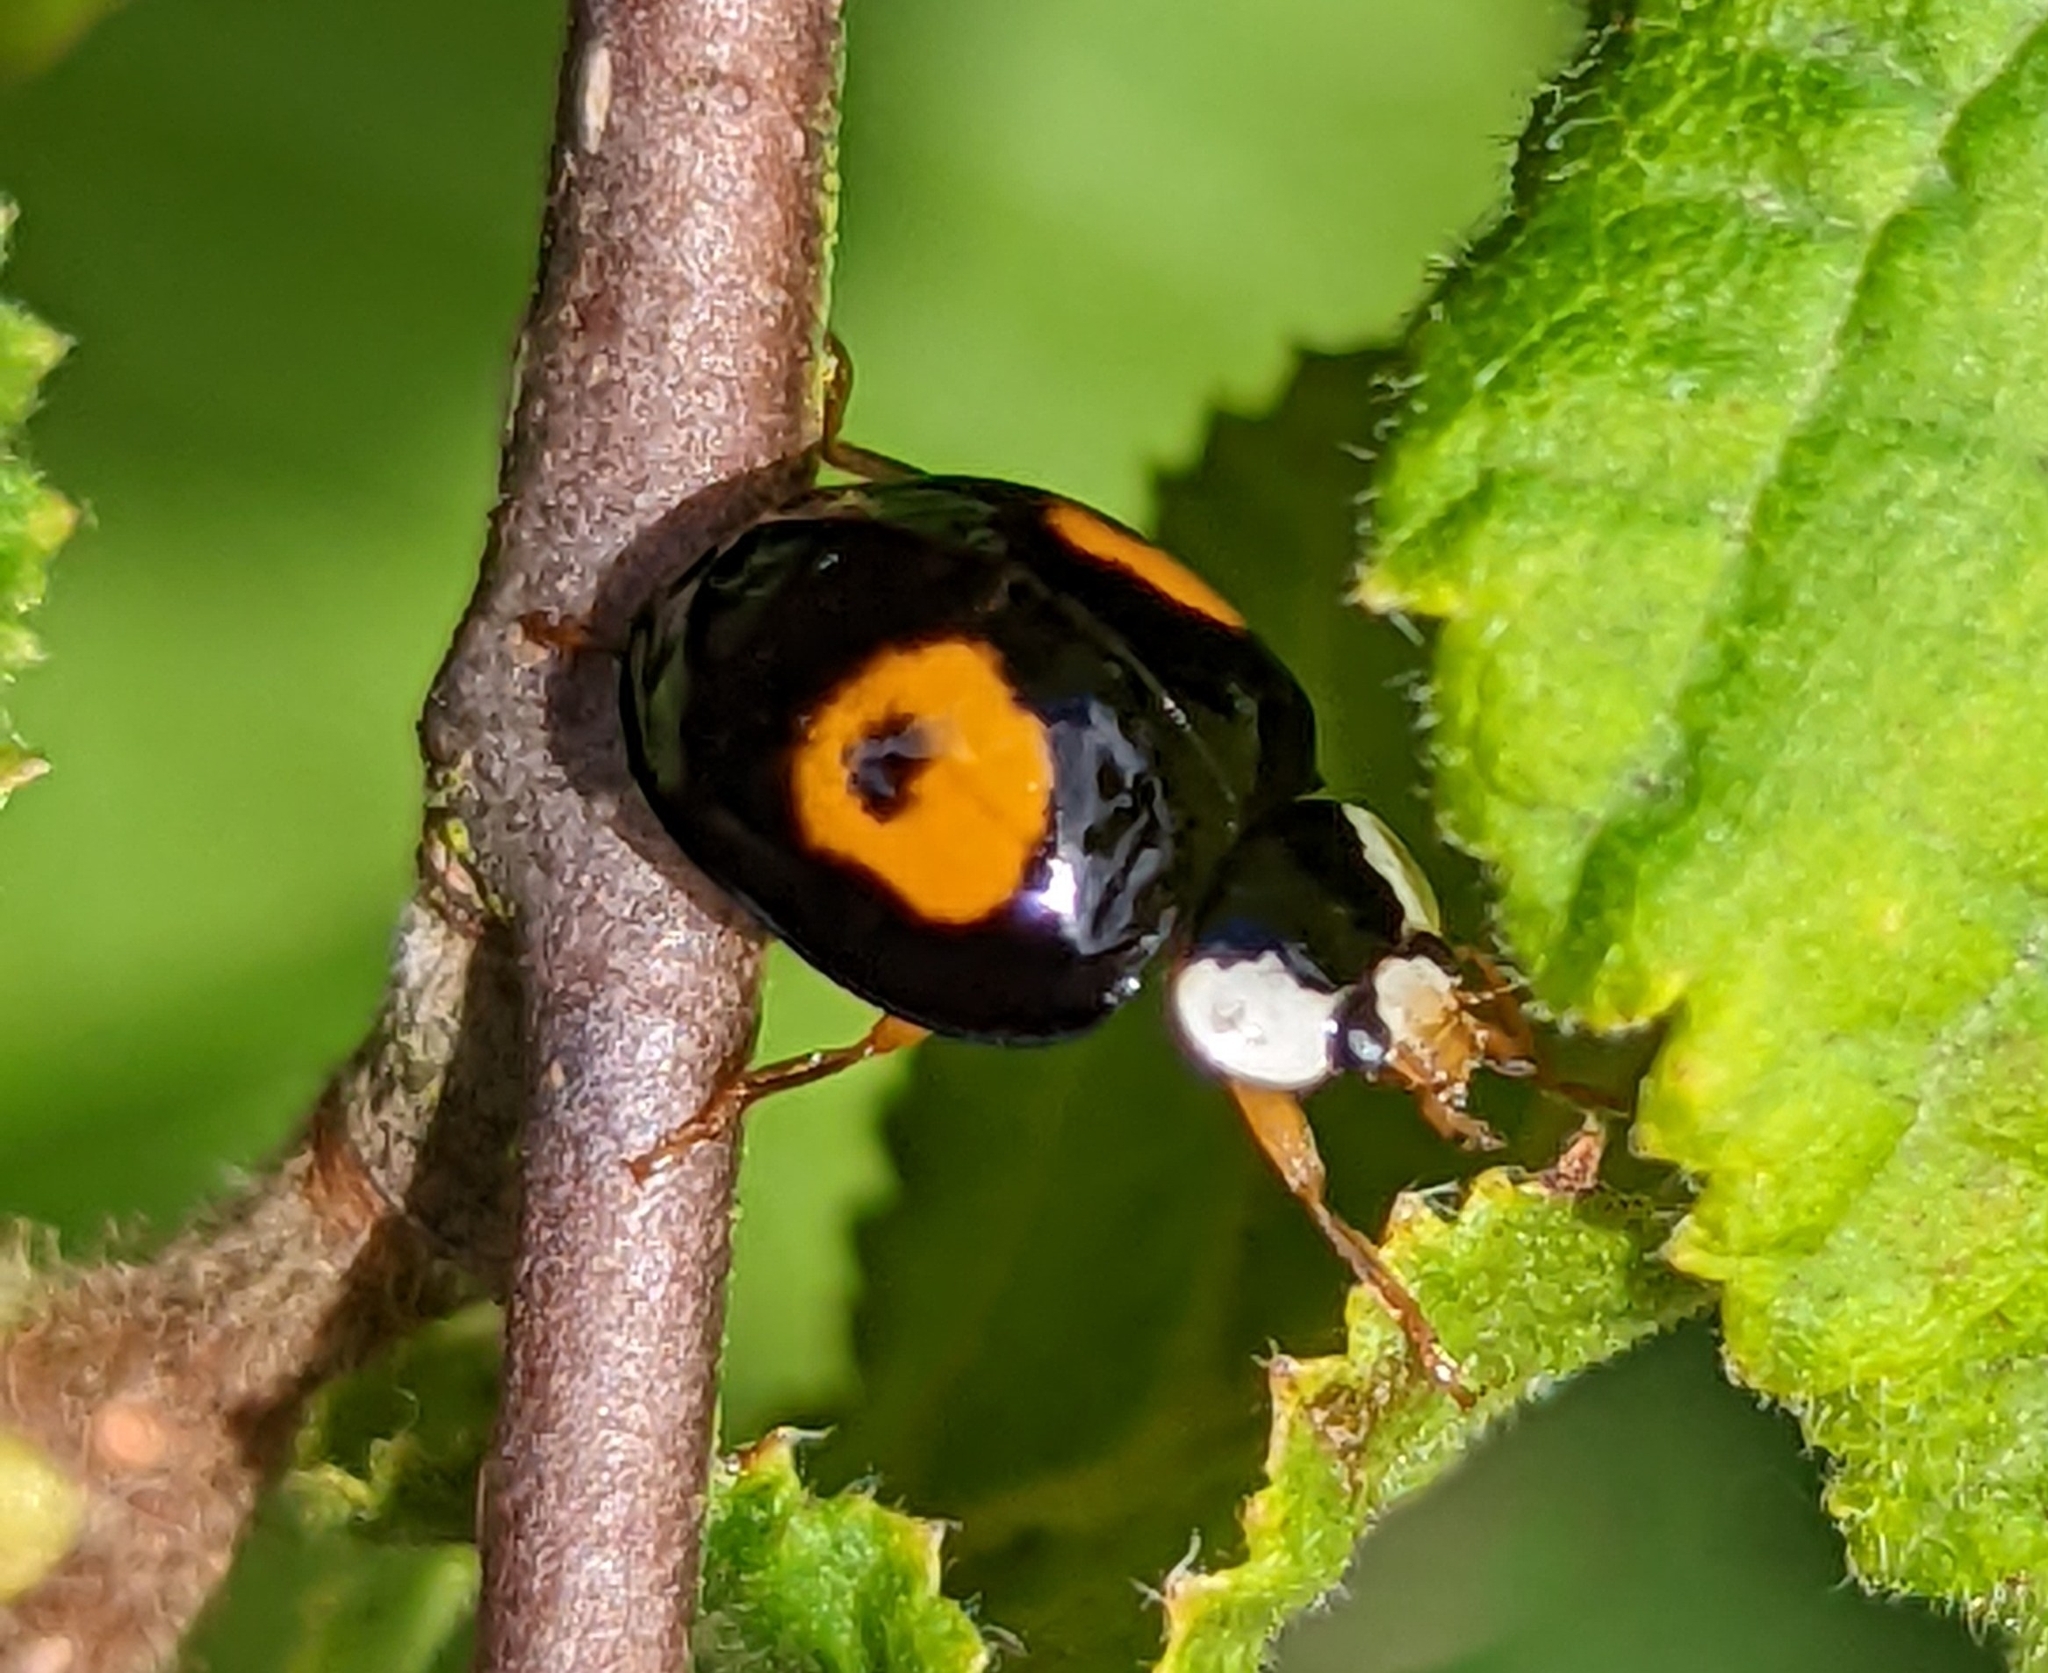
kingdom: Animalia
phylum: Arthropoda
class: Insecta
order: Coleoptera
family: Coccinellidae
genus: Harmonia
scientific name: Harmonia axyridis
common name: Harlequin ladybird
